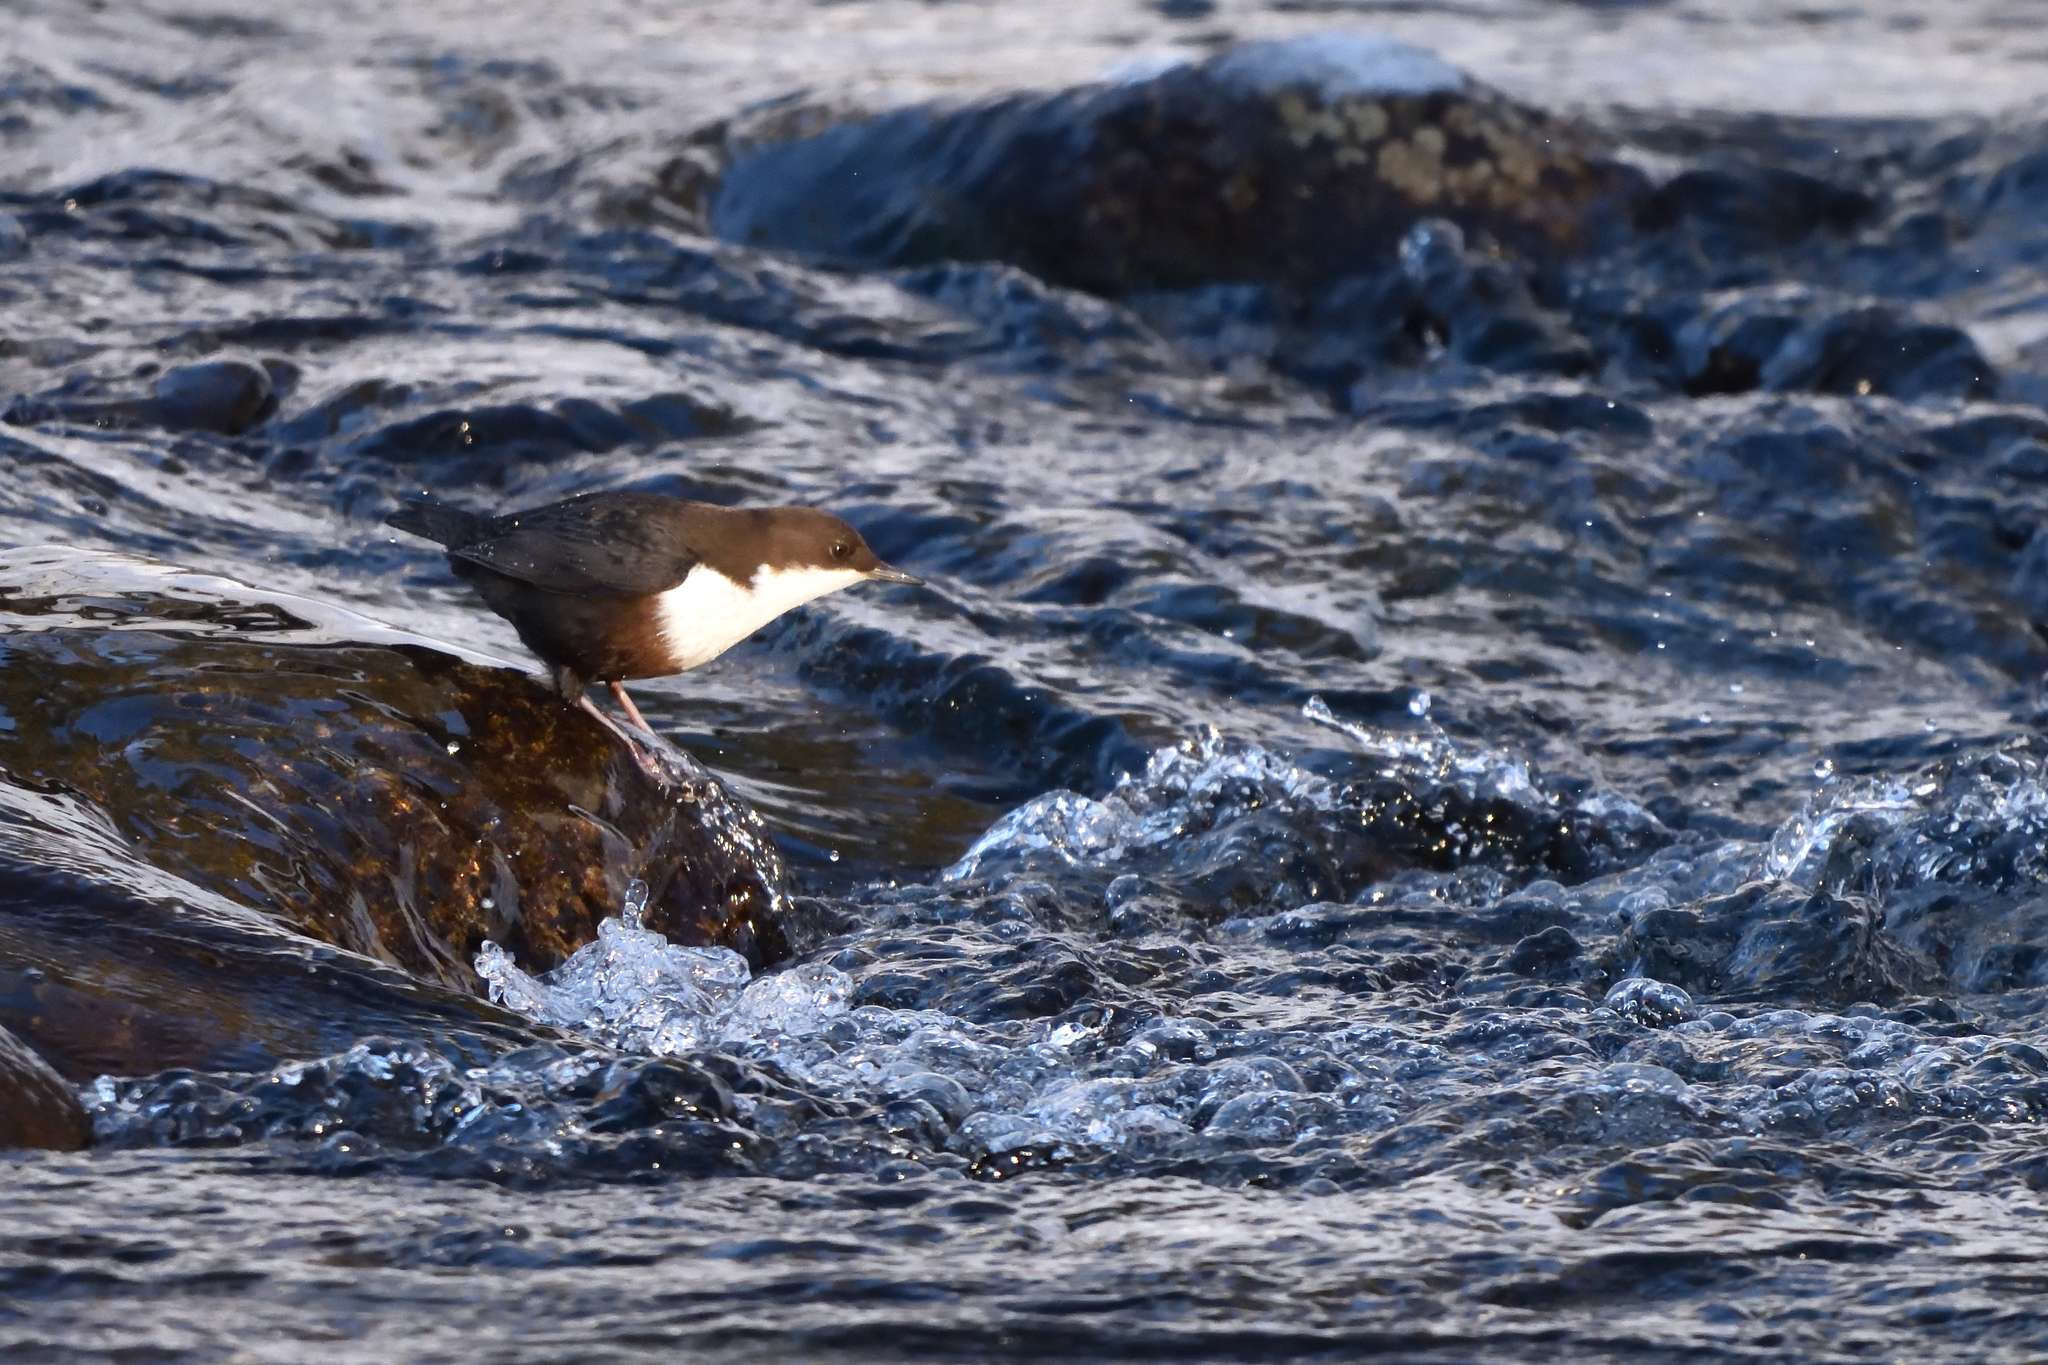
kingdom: Animalia
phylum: Chordata
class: Aves
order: Passeriformes
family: Cinclidae
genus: Cinclus
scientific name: Cinclus cinclus
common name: White-throated dipper
